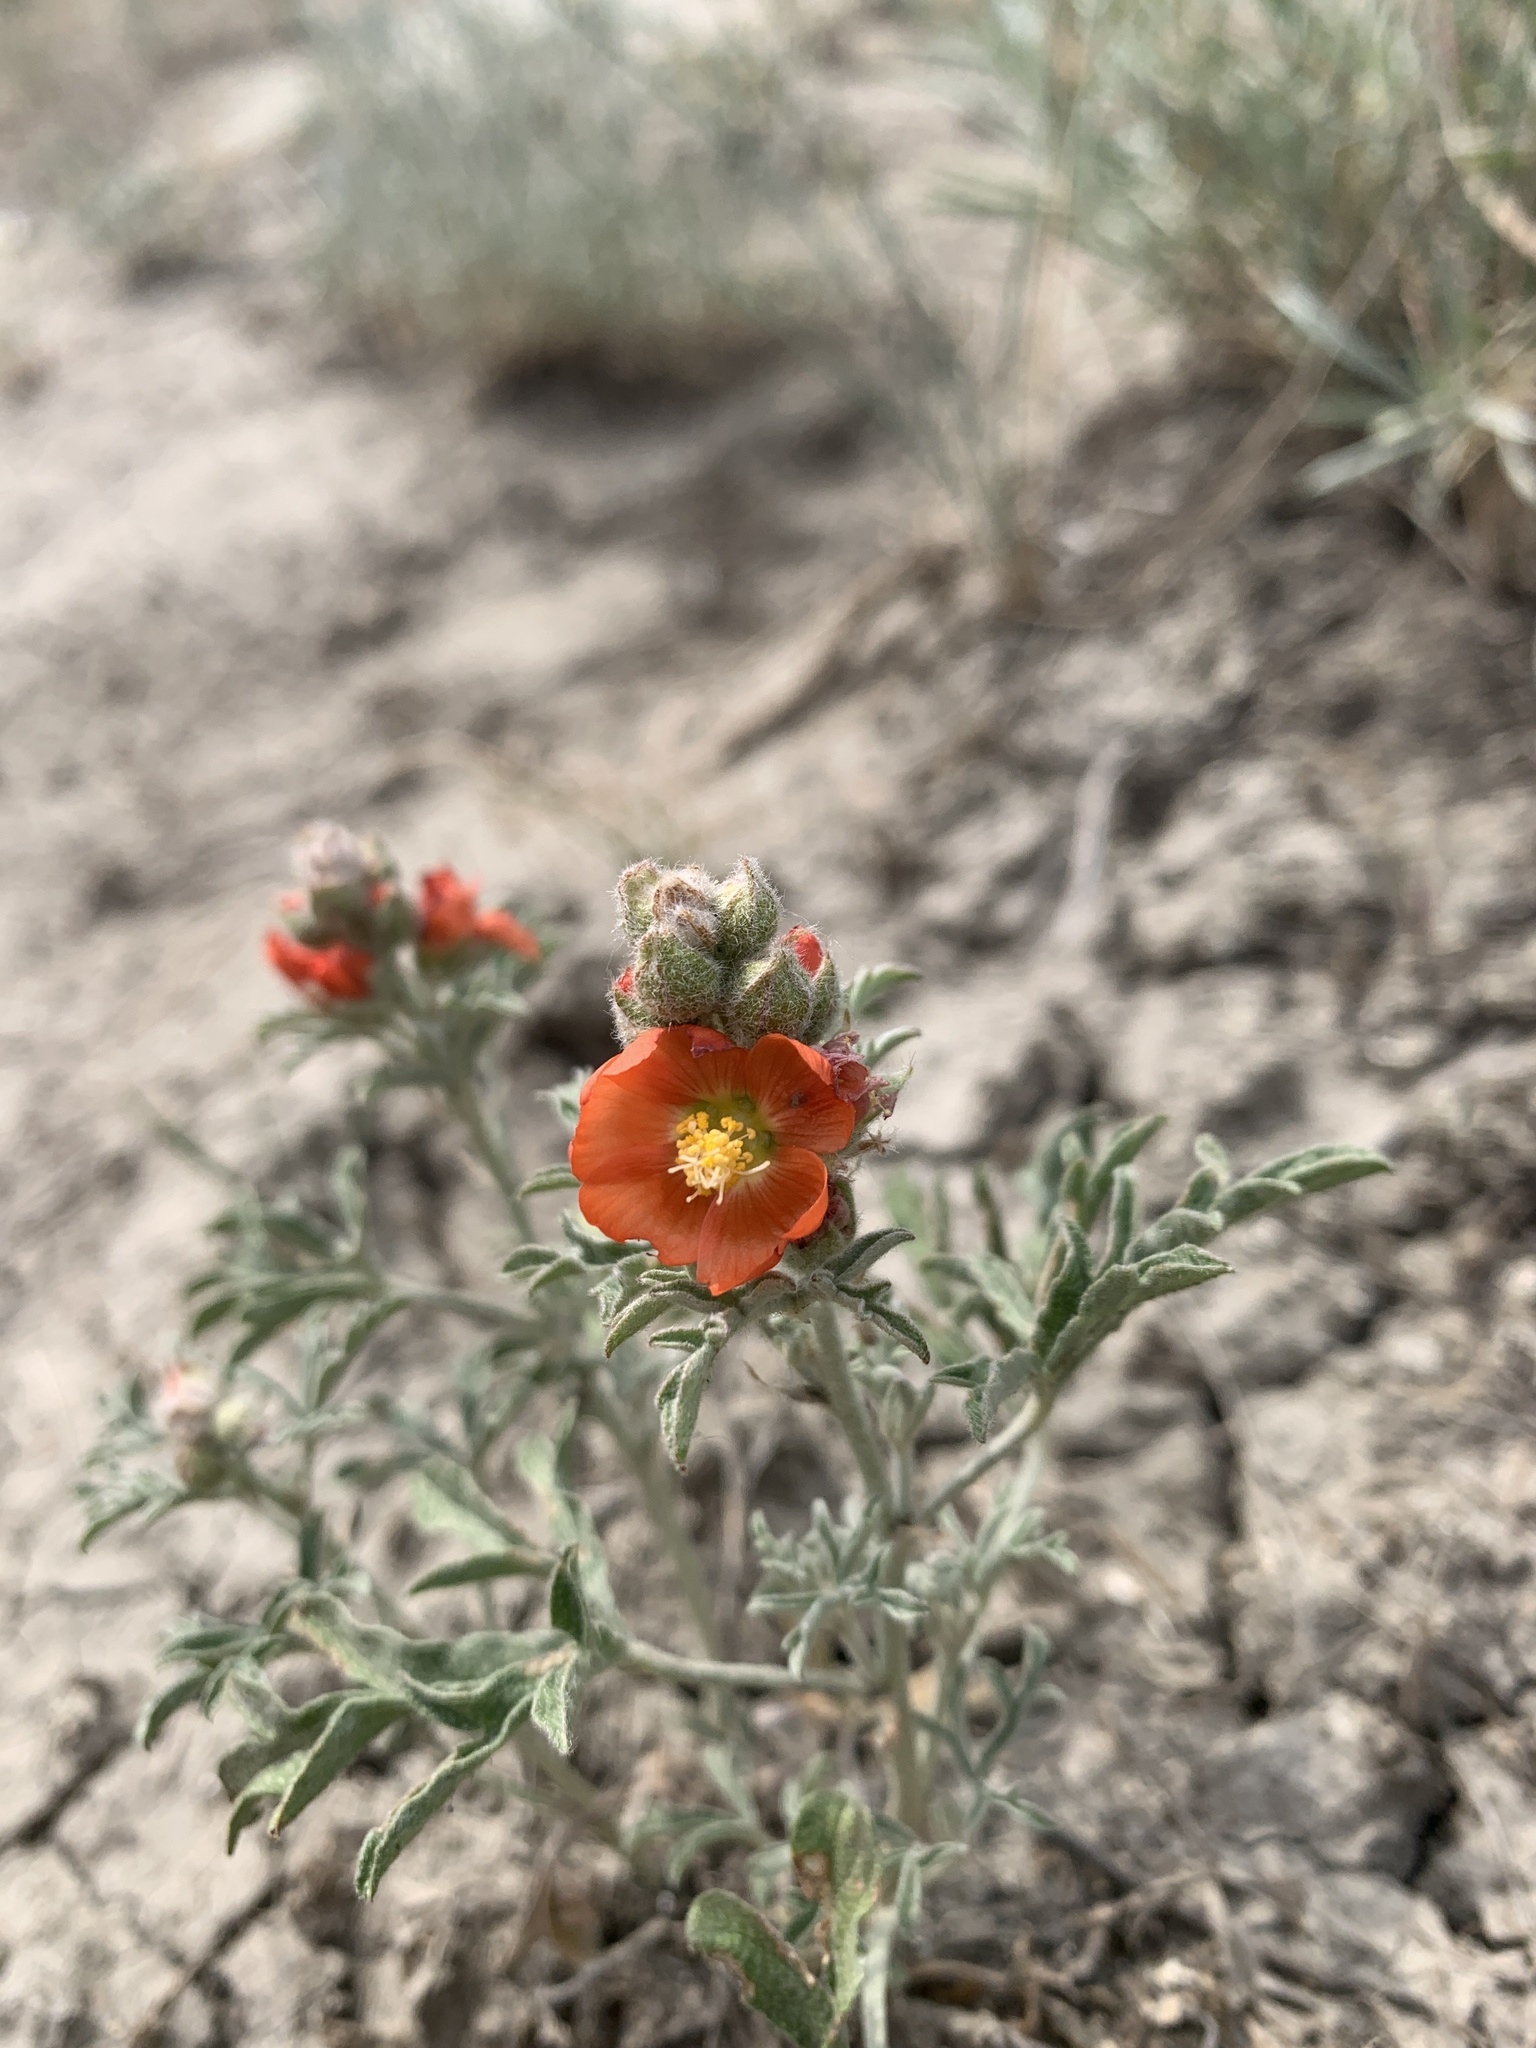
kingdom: Plantae
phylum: Tracheophyta
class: Magnoliopsida
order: Malvales
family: Malvaceae
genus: Sphaeralcea
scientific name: Sphaeralcea coccinea
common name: Moss-rose
